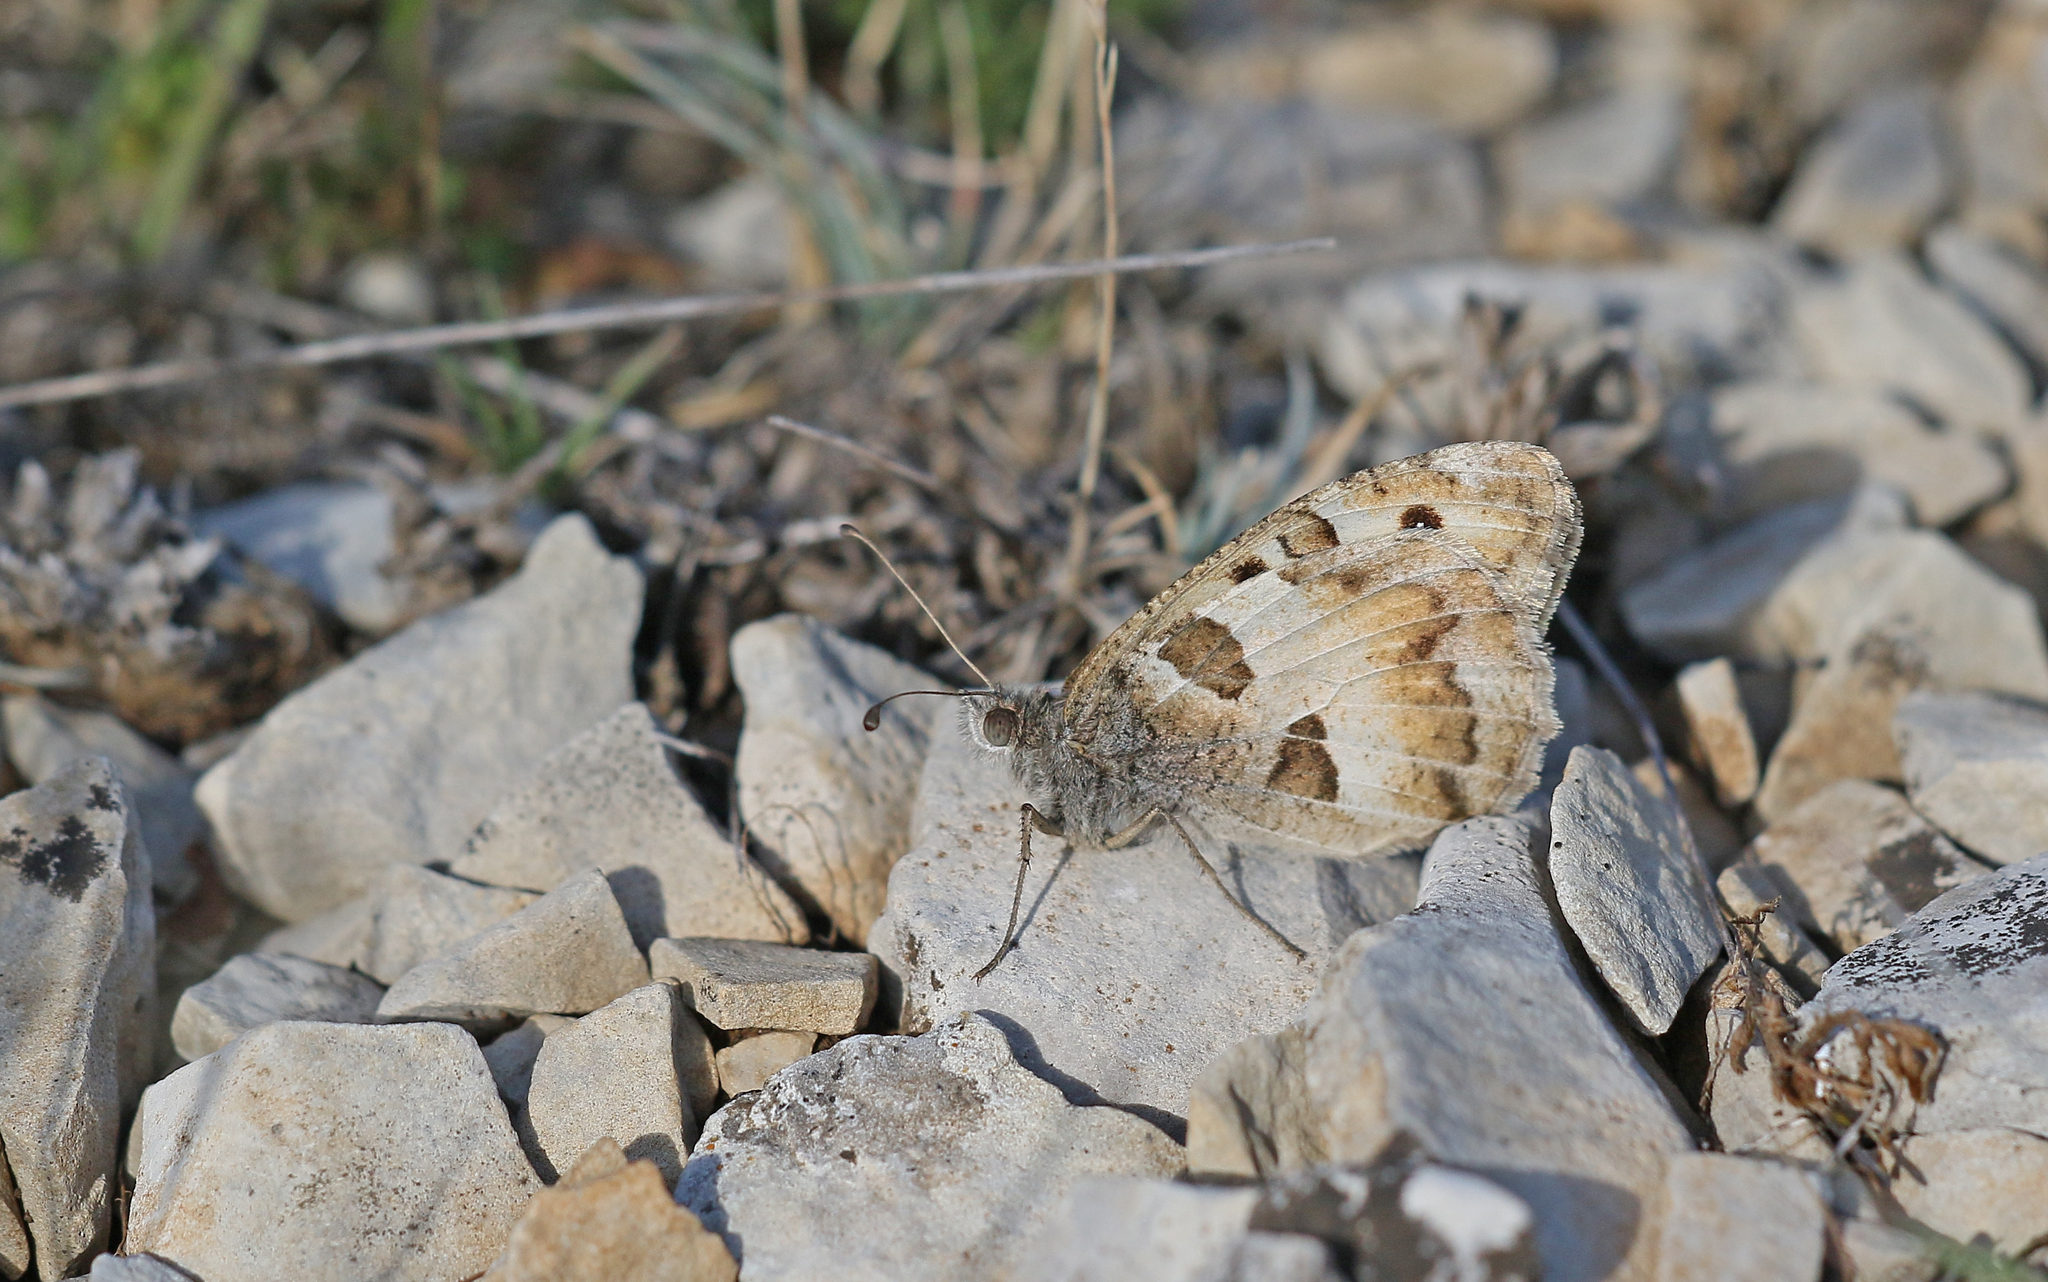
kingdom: Animalia
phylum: Arthropoda
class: Insecta
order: Lepidoptera
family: Nymphalidae
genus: Satyrus
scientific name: Satyrus briseis
